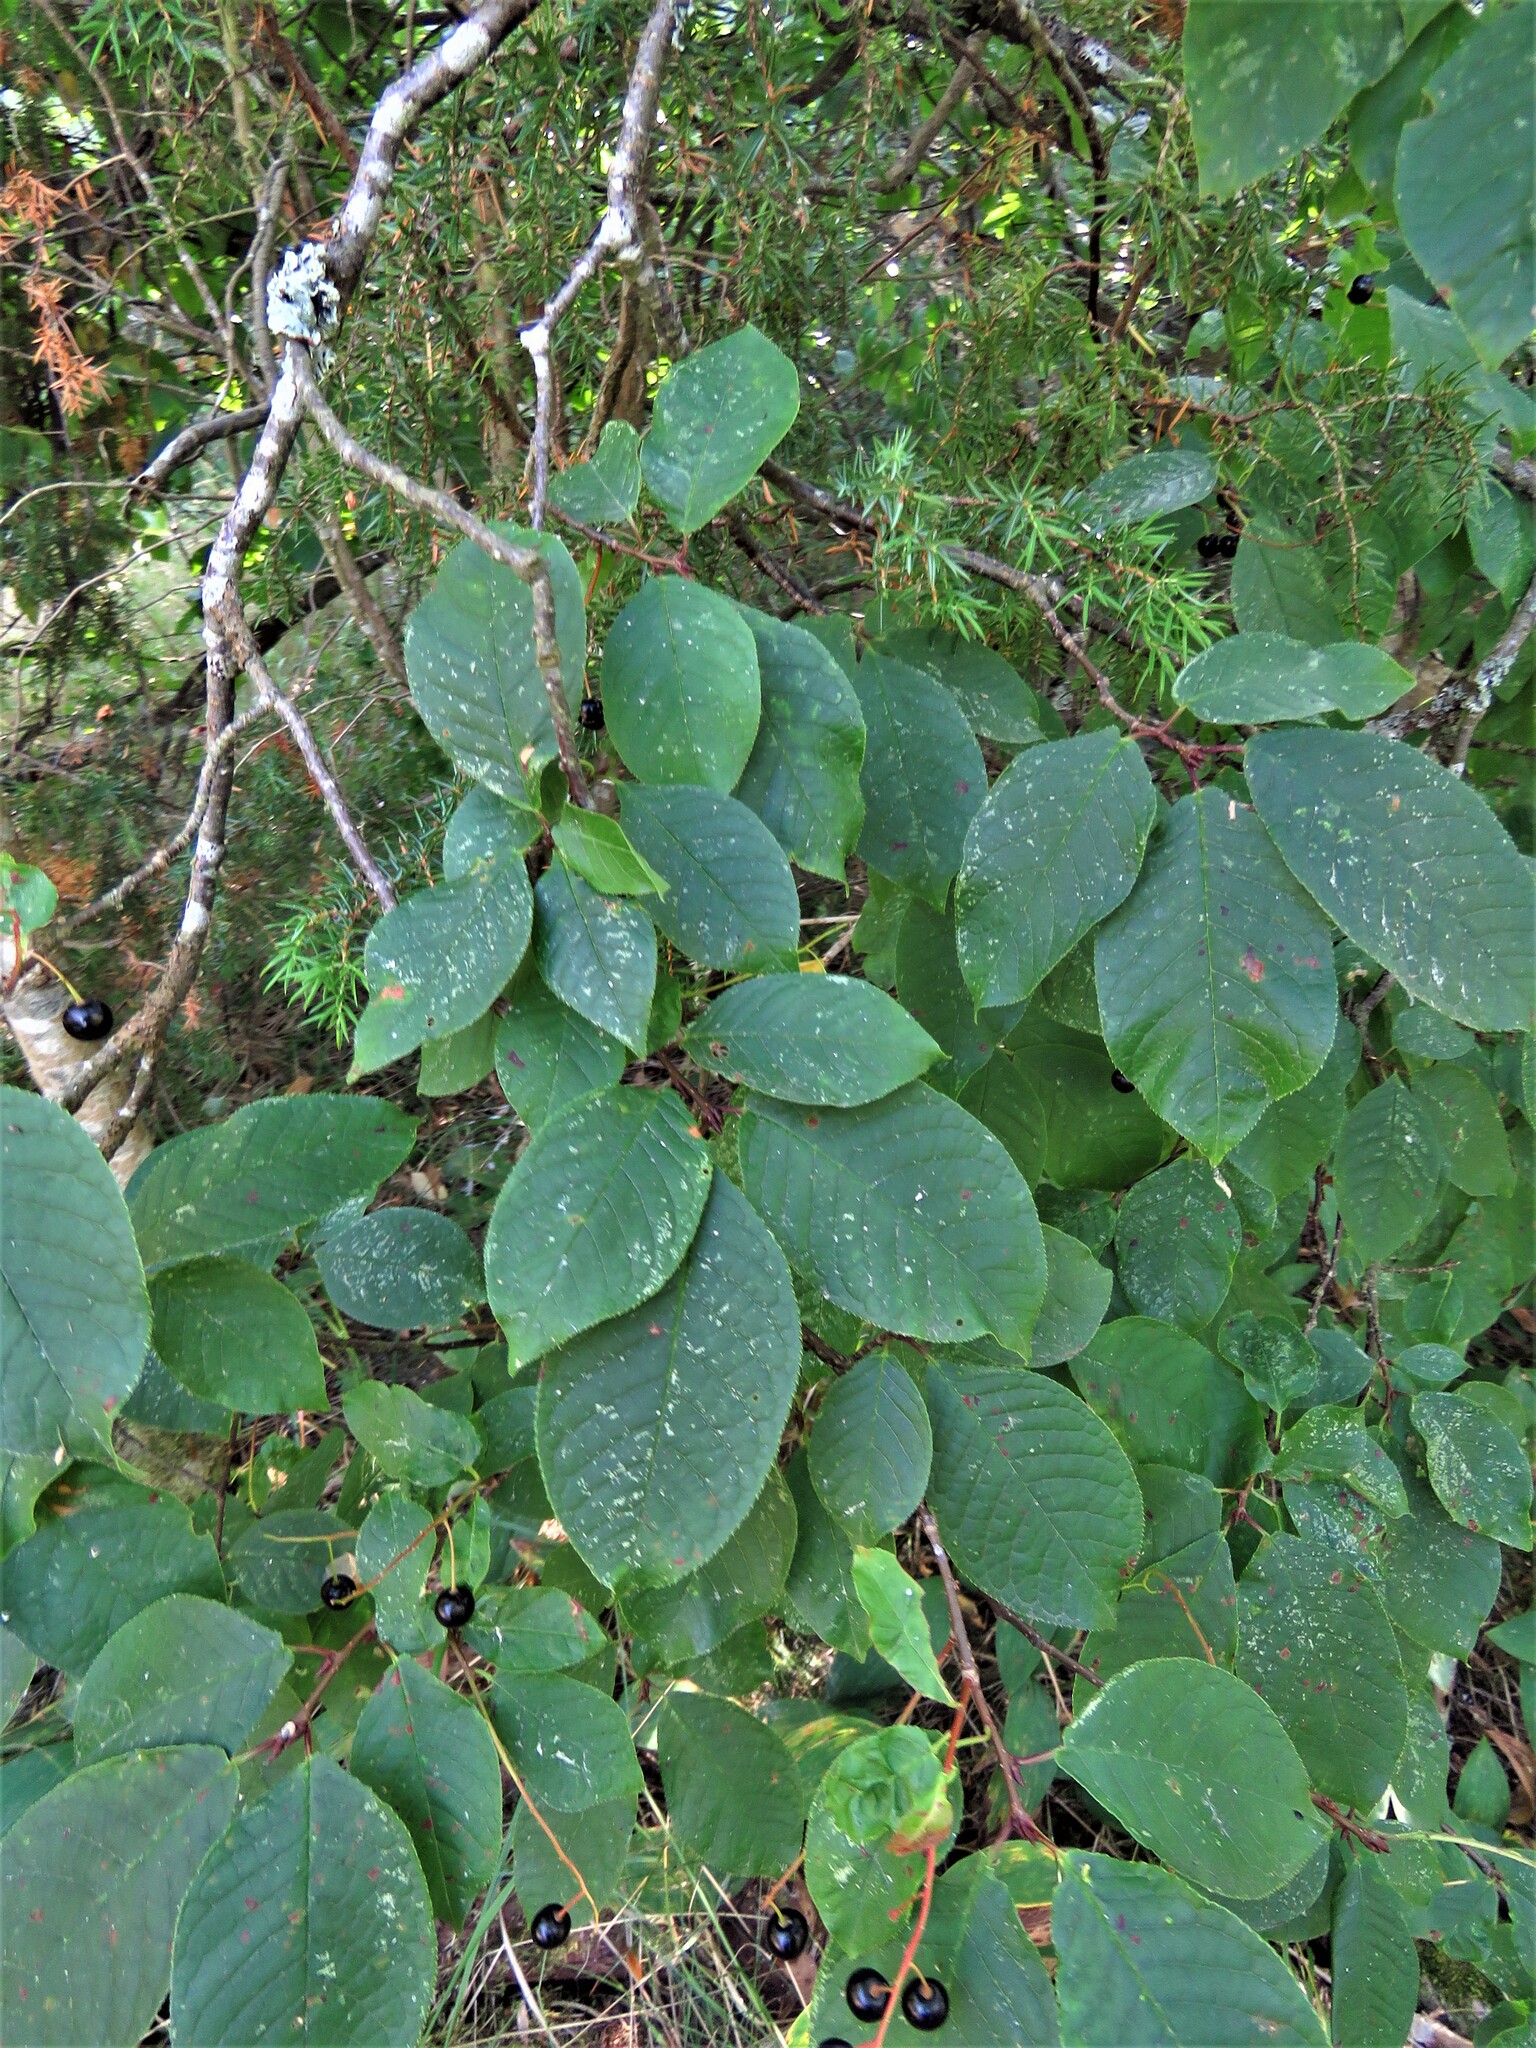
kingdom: Plantae
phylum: Tracheophyta
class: Magnoliopsida
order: Rosales
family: Rosaceae
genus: Prunus
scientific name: Prunus padus
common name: Bird cherry
